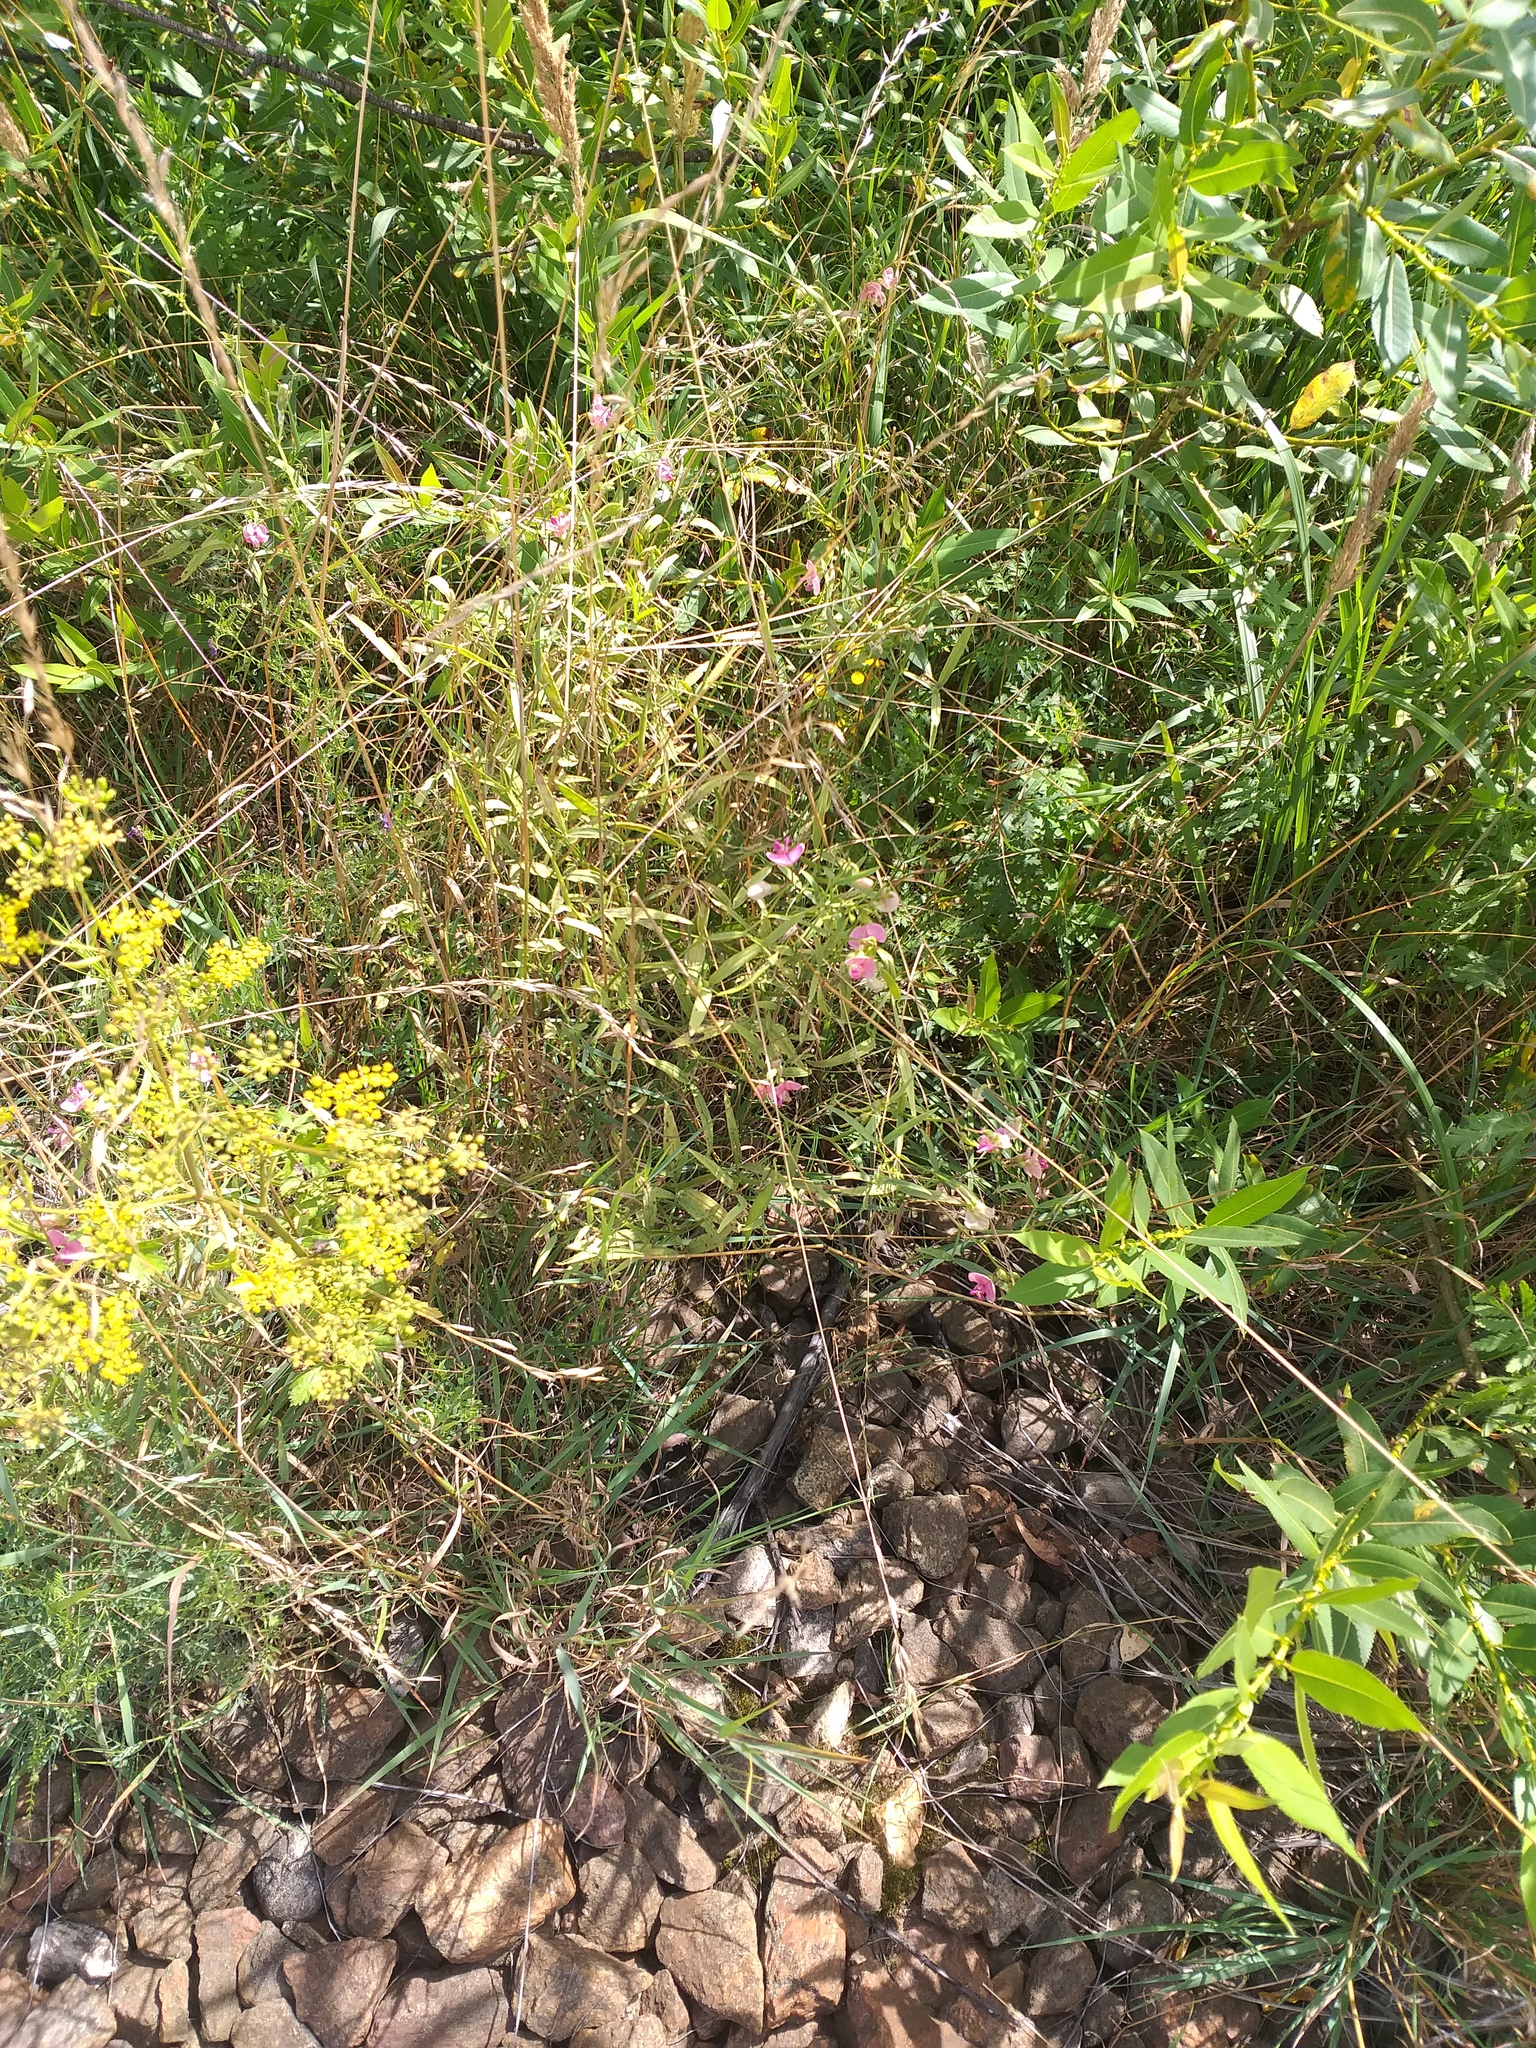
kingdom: Plantae
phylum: Tracheophyta
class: Magnoliopsida
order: Fabales
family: Fabaceae
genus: Lathyrus
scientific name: Lathyrus sylvestris
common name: Flat pea
